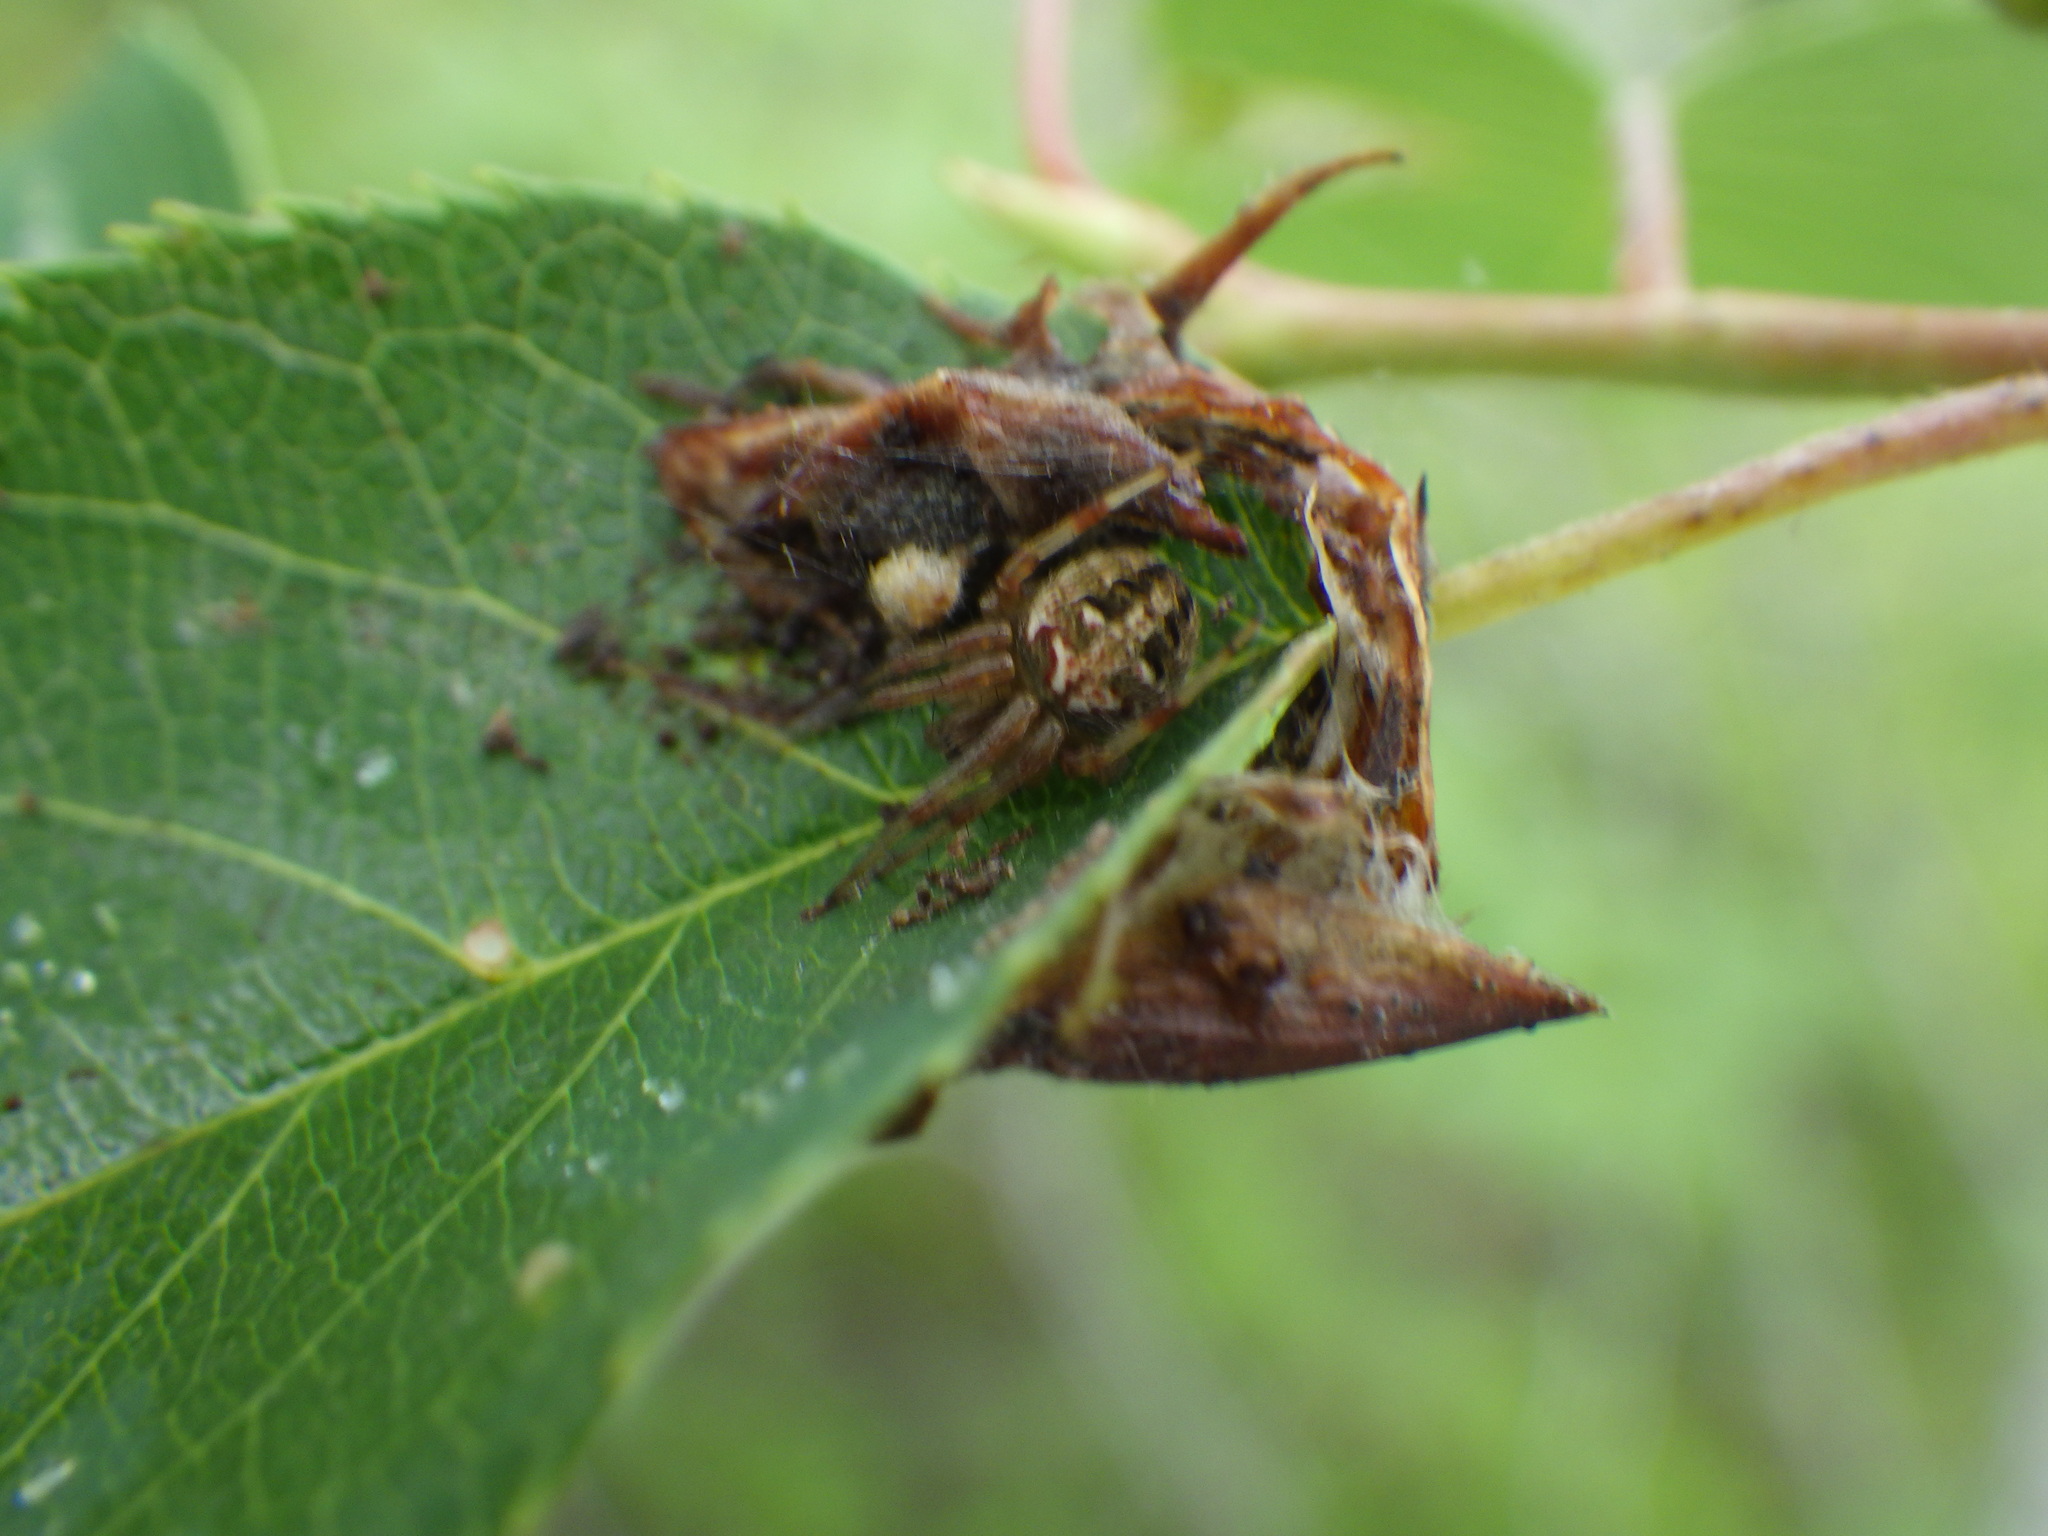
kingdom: Animalia
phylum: Arthropoda
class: Arachnida
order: Araneae
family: Araneidae
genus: Neoscona
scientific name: Neoscona arabesca
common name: Orb weavers
